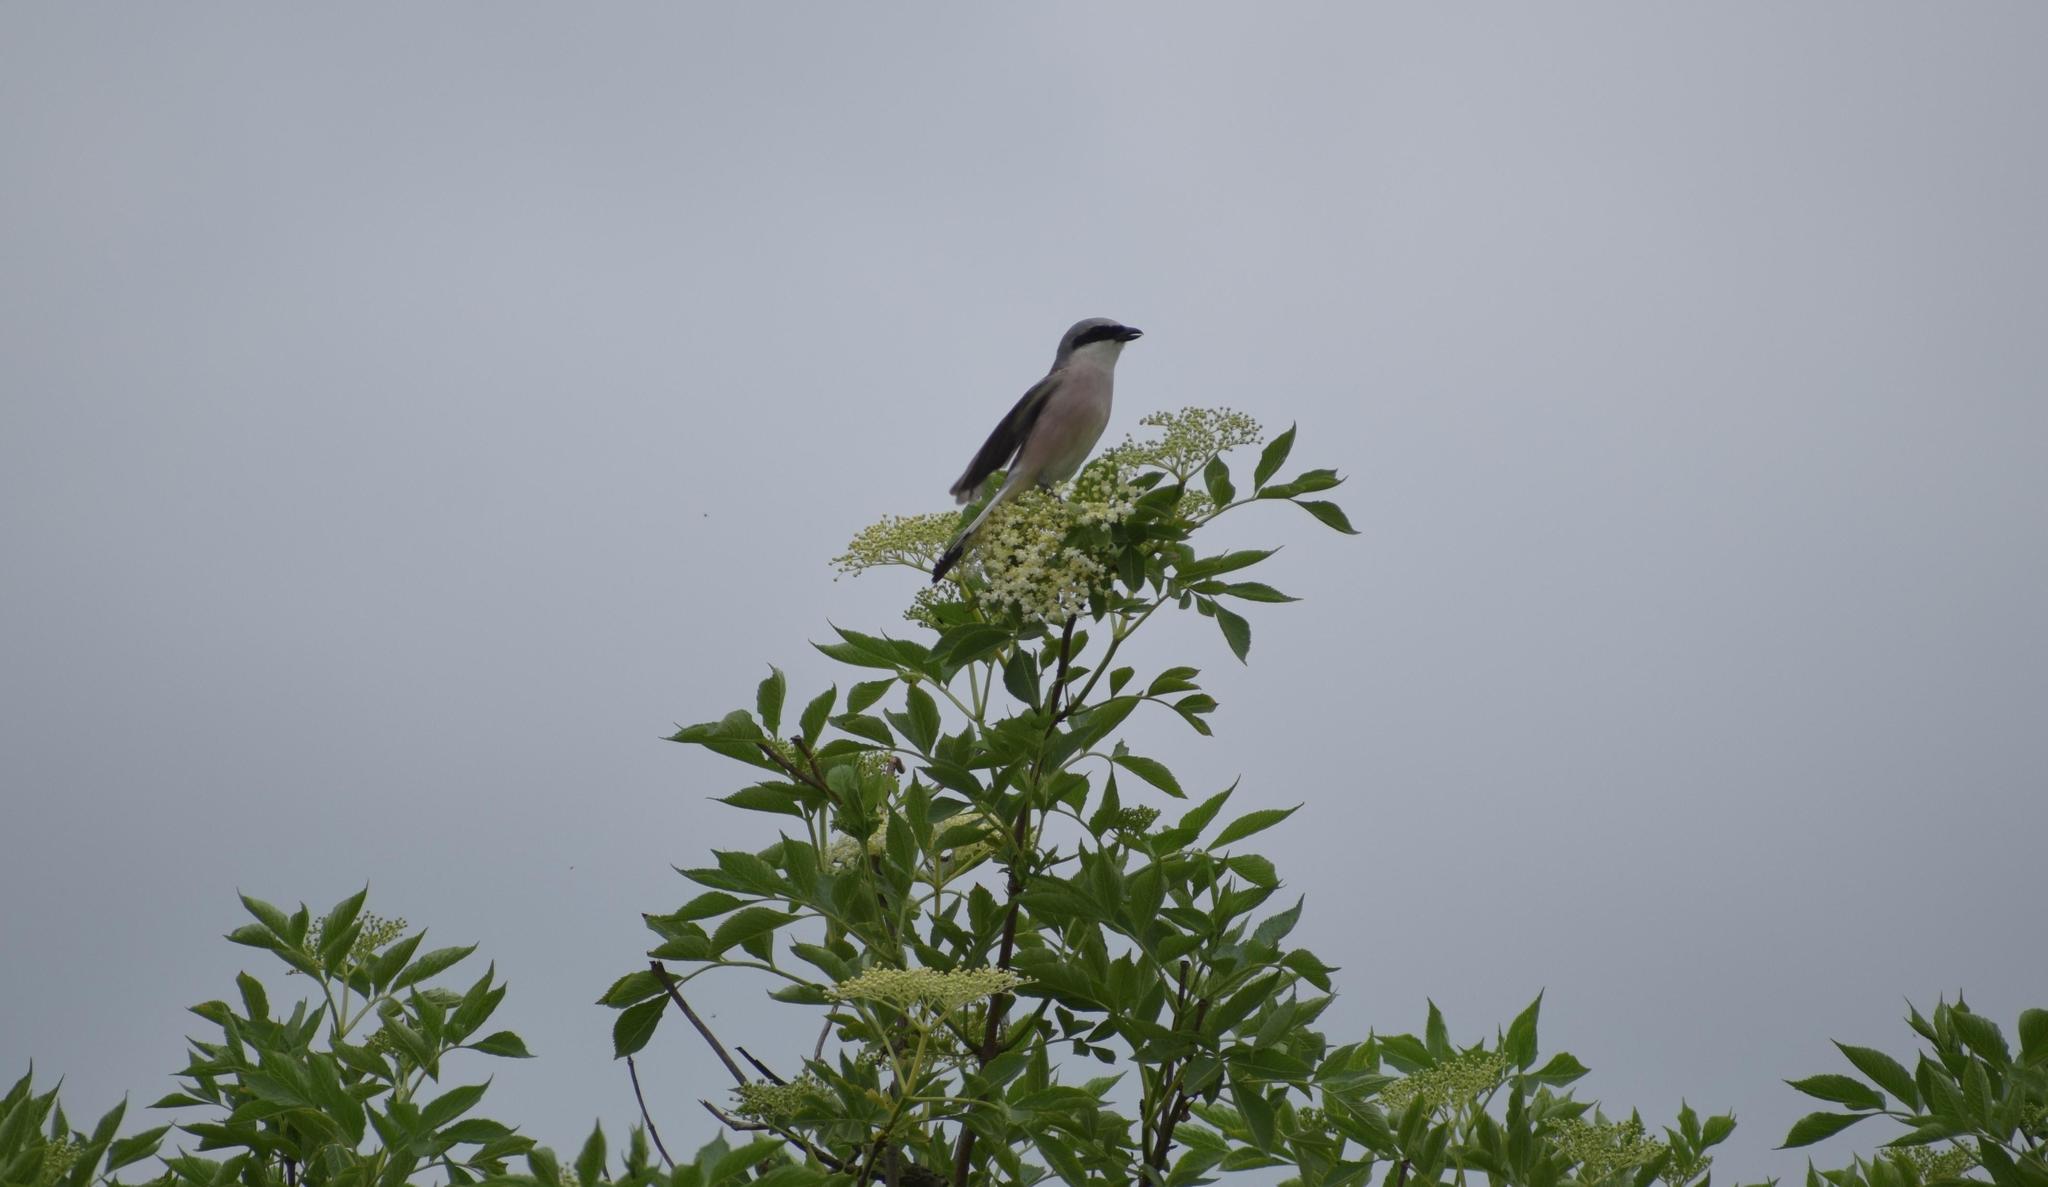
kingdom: Animalia
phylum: Chordata
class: Aves
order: Passeriformes
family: Laniidae
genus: Lanius
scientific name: Lanius collurio
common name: Red-backed shrike
